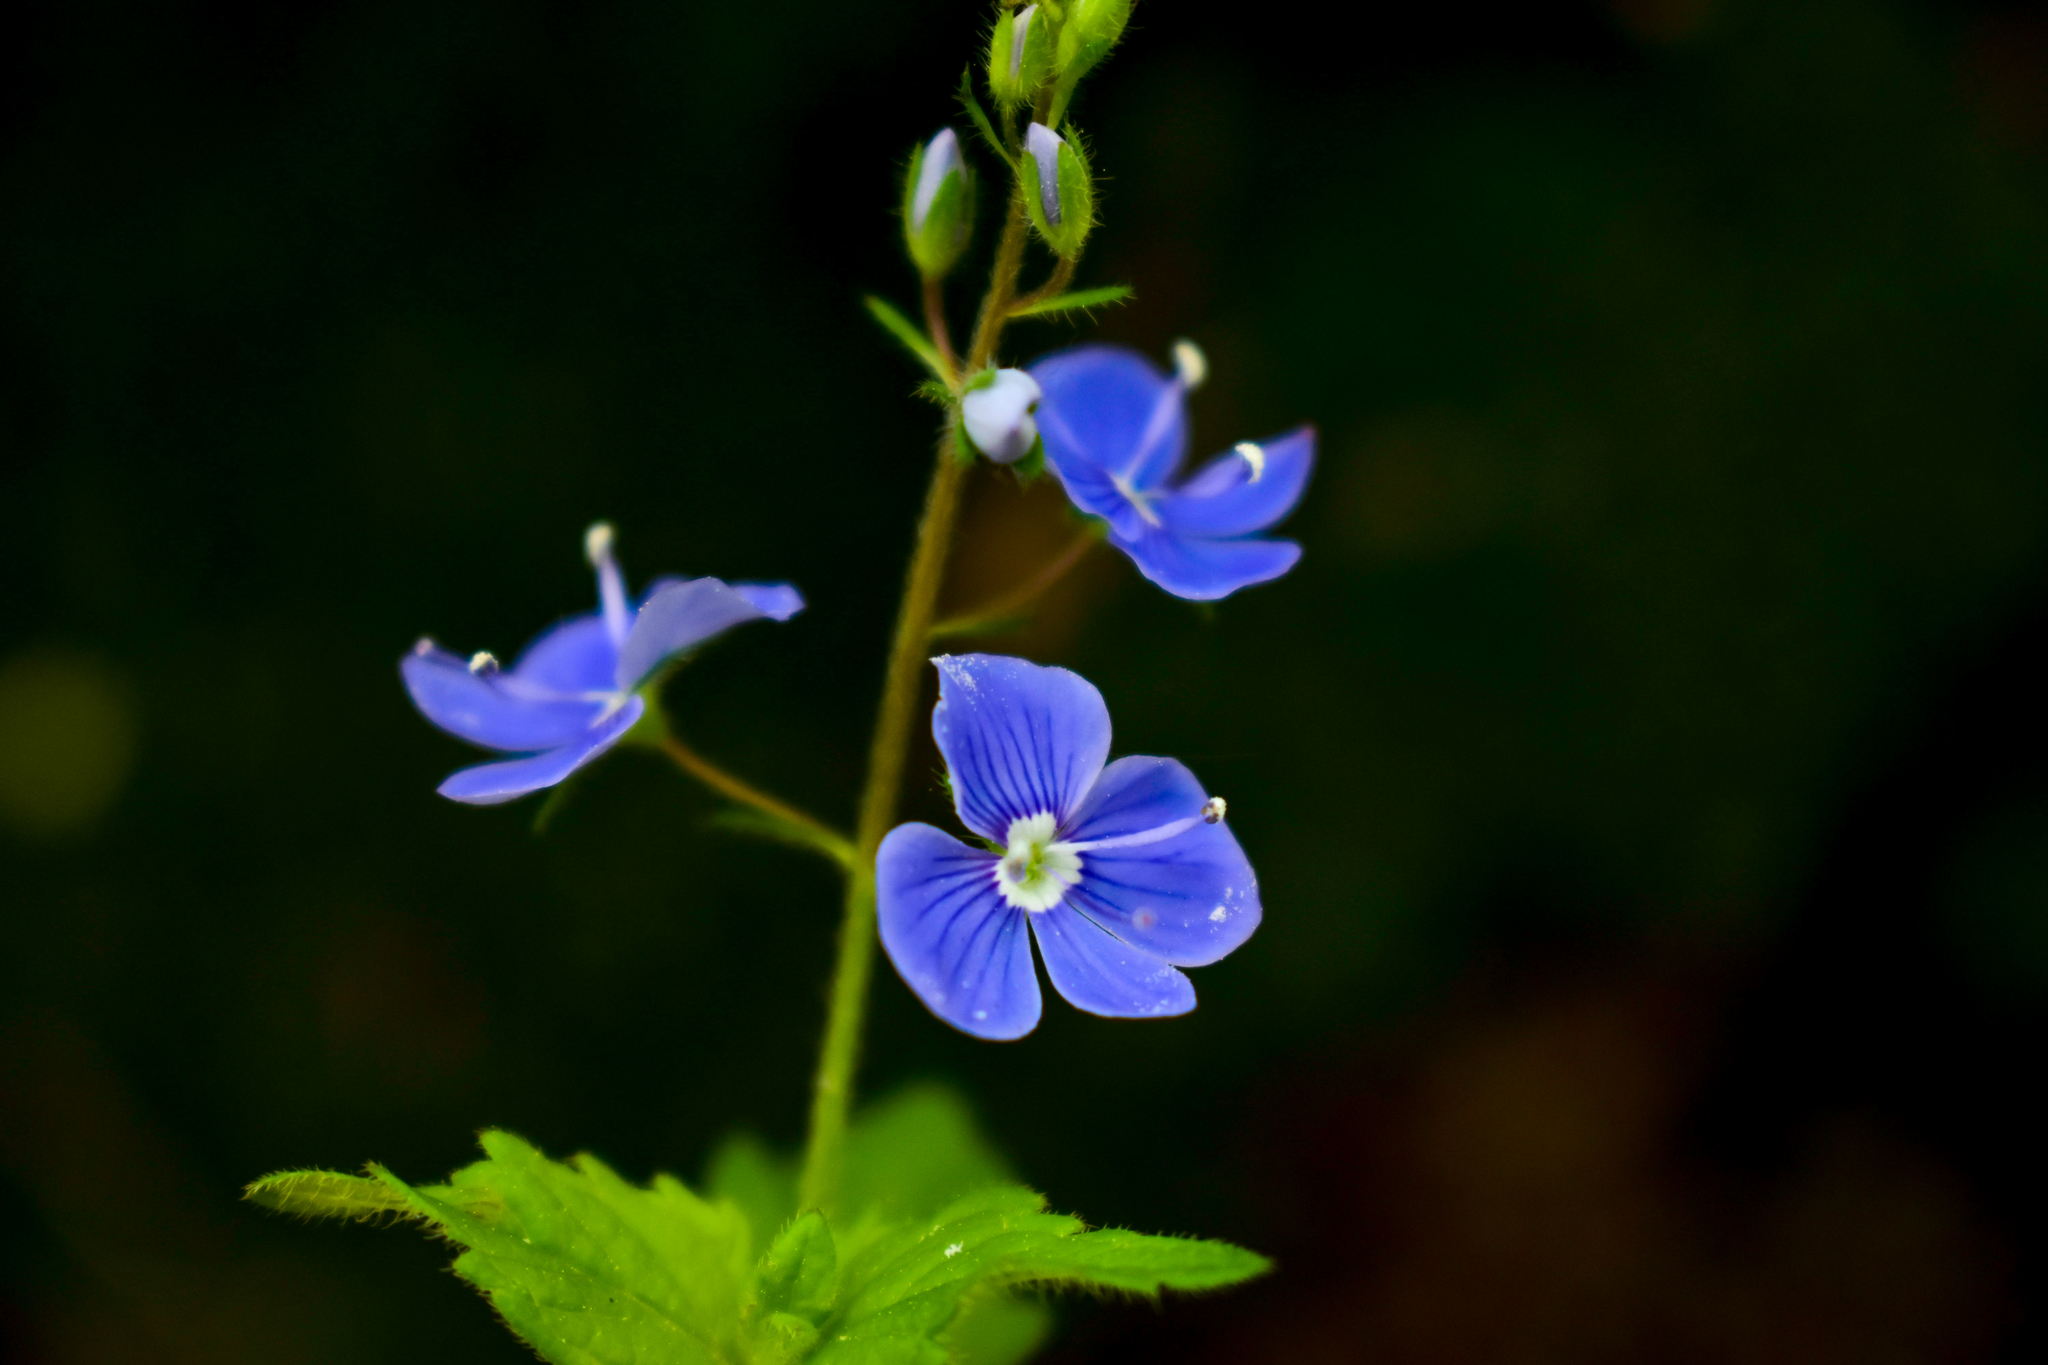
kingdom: Plantae
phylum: Tracheophyta
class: Magnoliopsida
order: Lamiales
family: Plantaginaceae
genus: Veronica
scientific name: Veronica chamaedrys
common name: Germander speedwell
